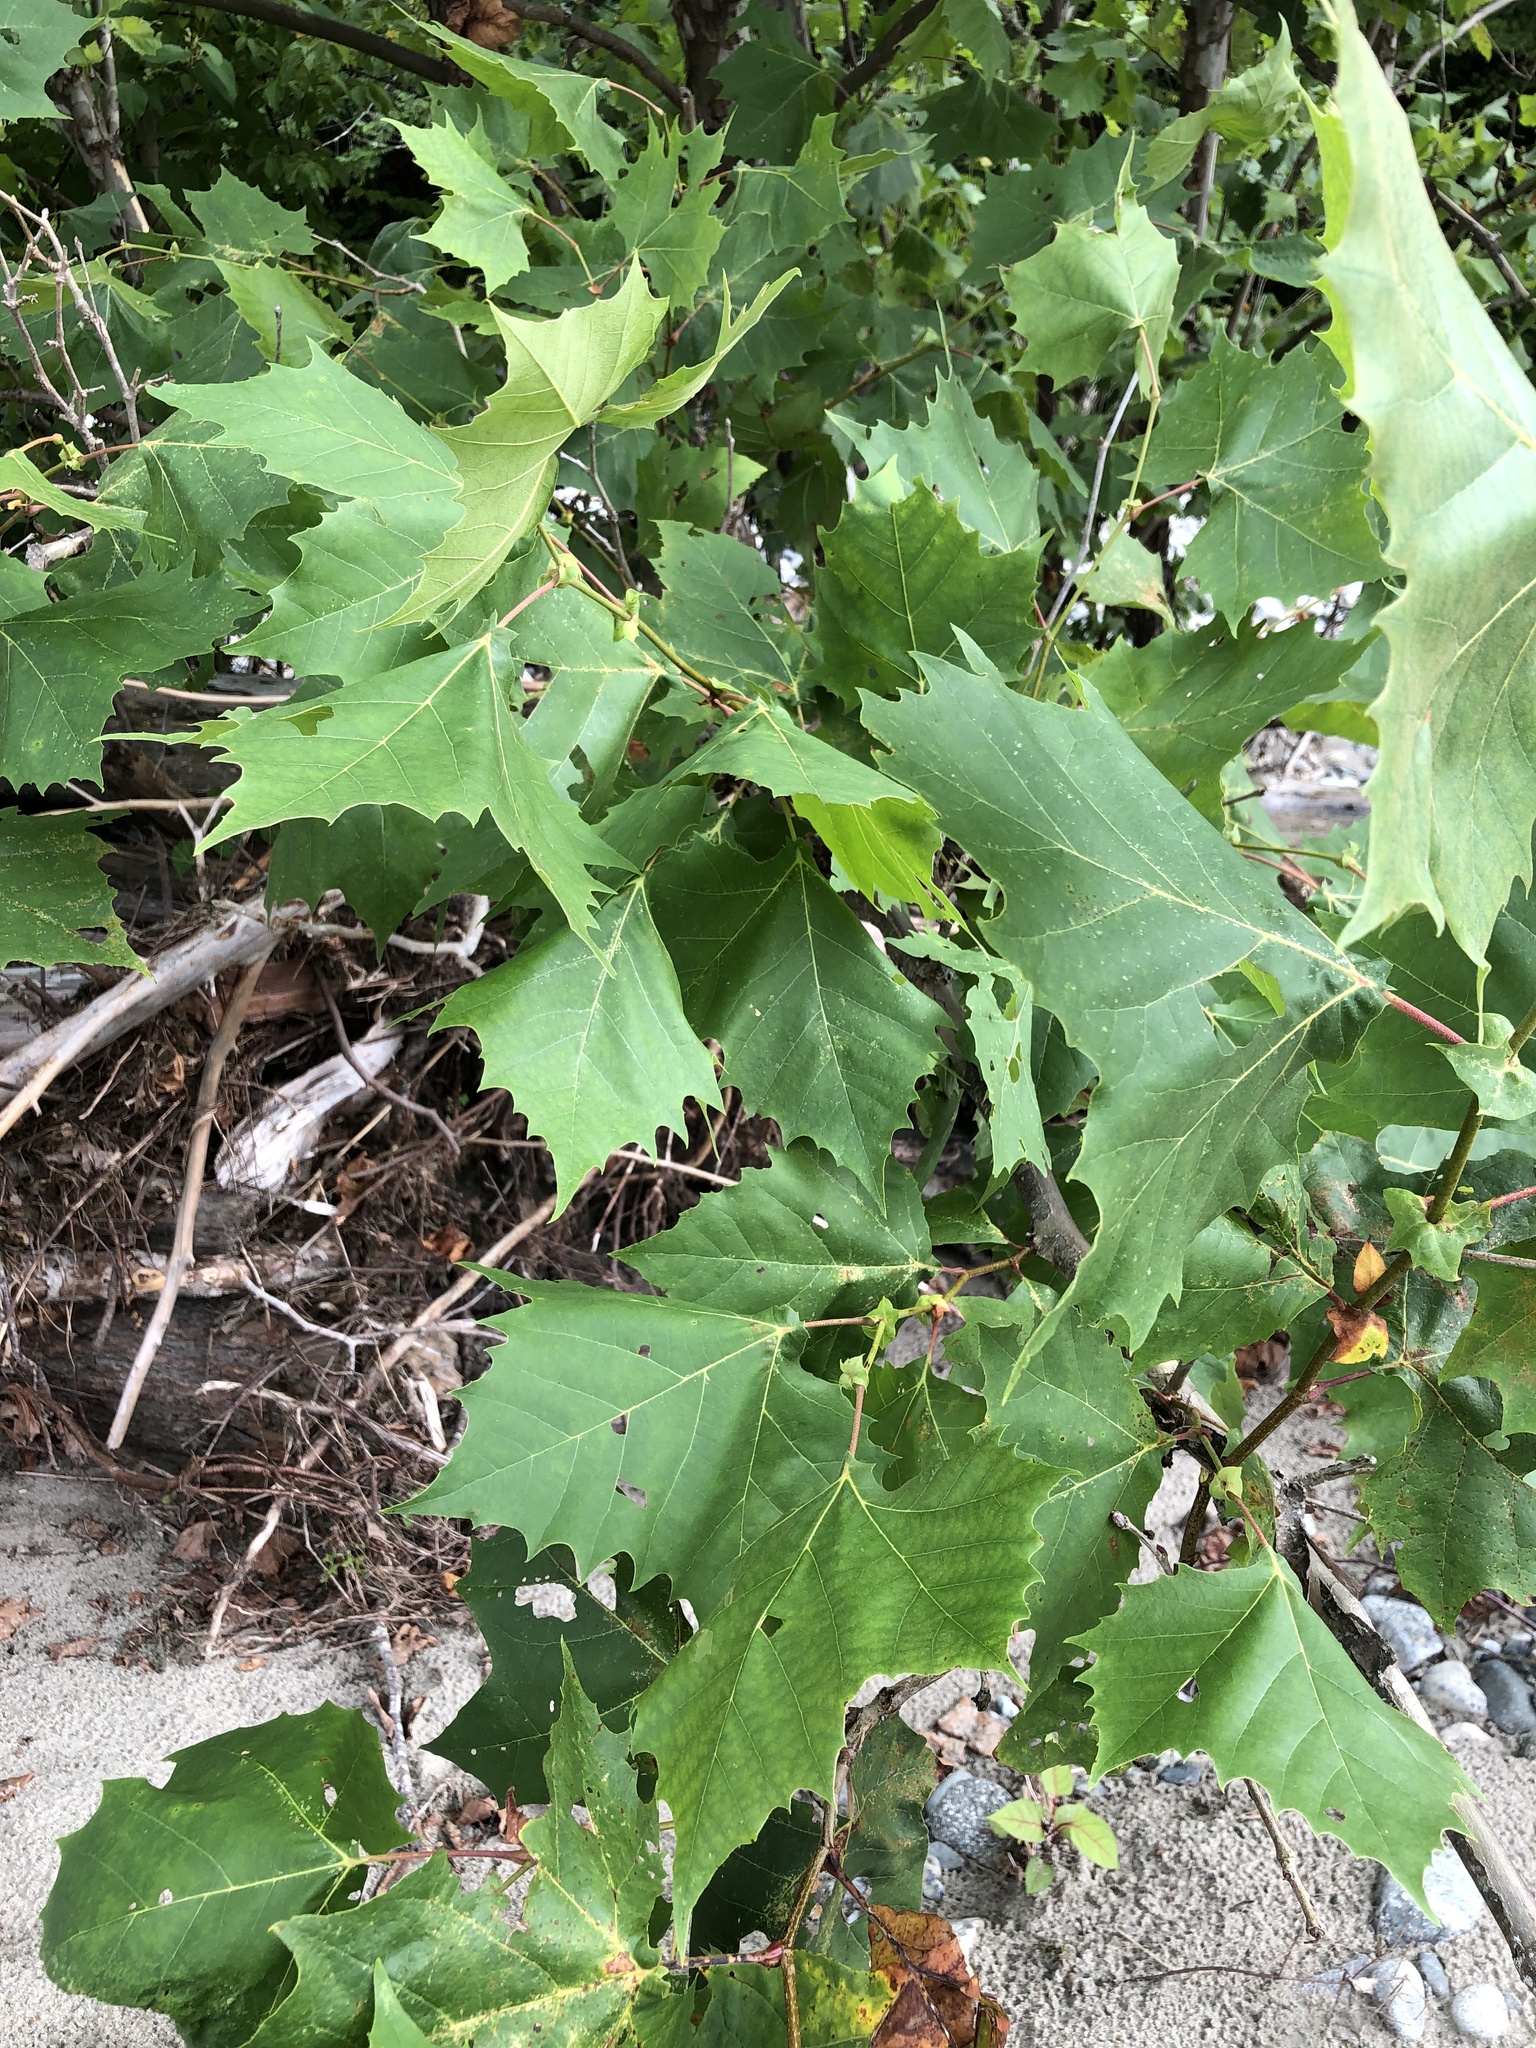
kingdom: Plantae
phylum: Tracheophyta
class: Magnoliopsida
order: Proteales
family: Platanaceae
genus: Platanus
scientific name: Platanus occidentalis
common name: American sycamore
